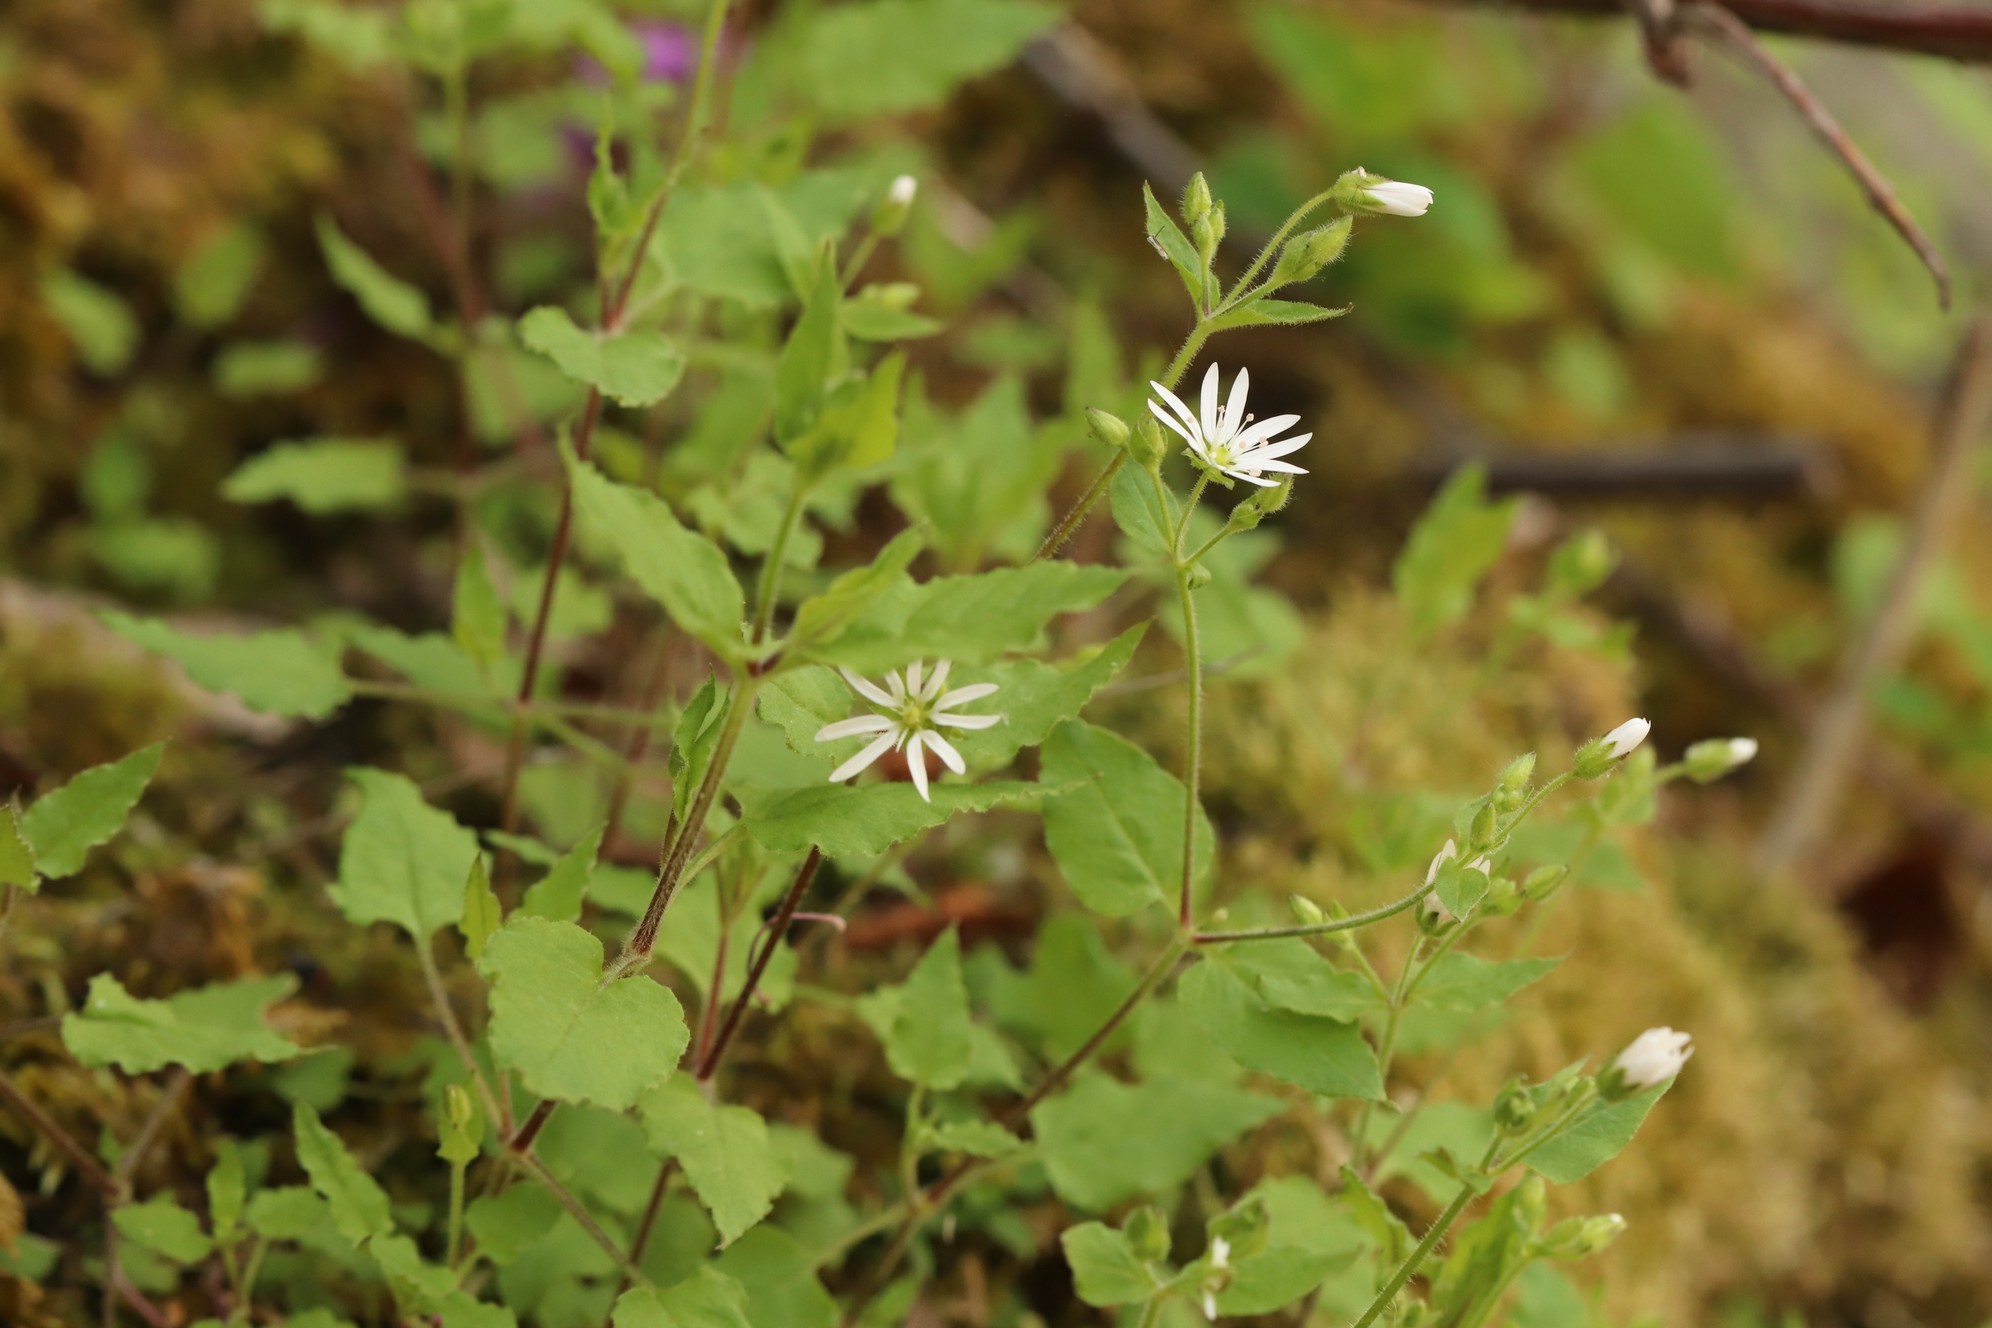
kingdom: Plantae
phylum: Tracheophyta
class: Magnoliopsida
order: Caryophyllales
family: Caryophyllaceae
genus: Stellaria
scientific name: Stellaria bungeana
